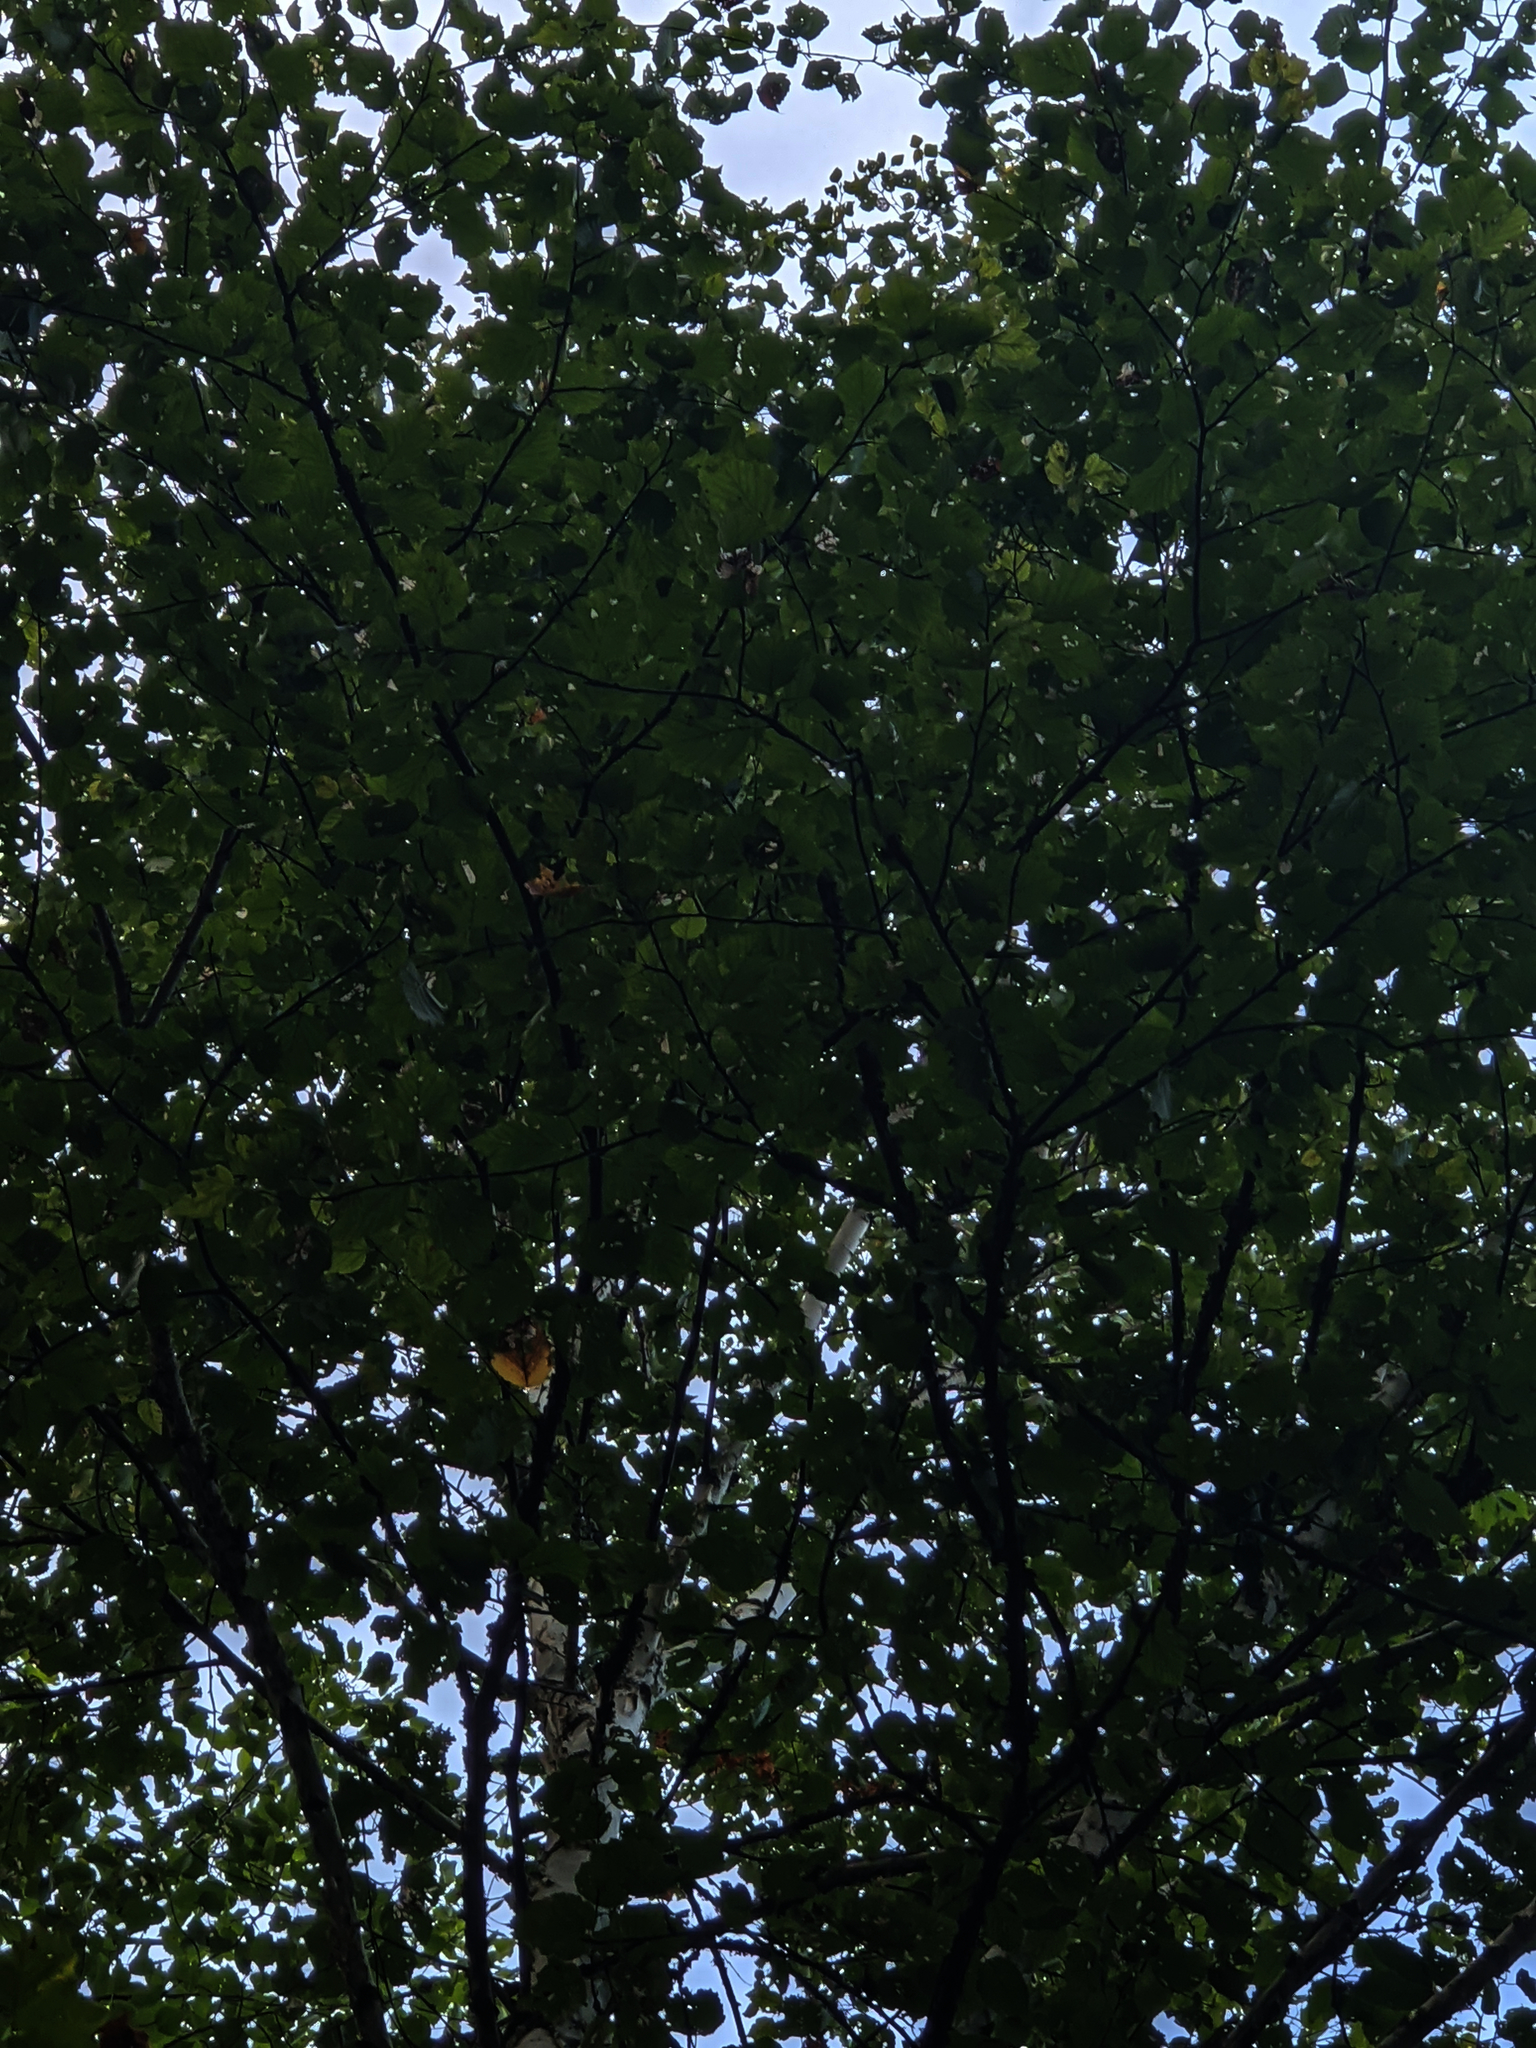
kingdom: Plantae
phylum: Tracheophyta
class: Magnoliopsida
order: Fagales
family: Betulaceae
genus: Betula
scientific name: Betula papyrifera
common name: Paper birch
